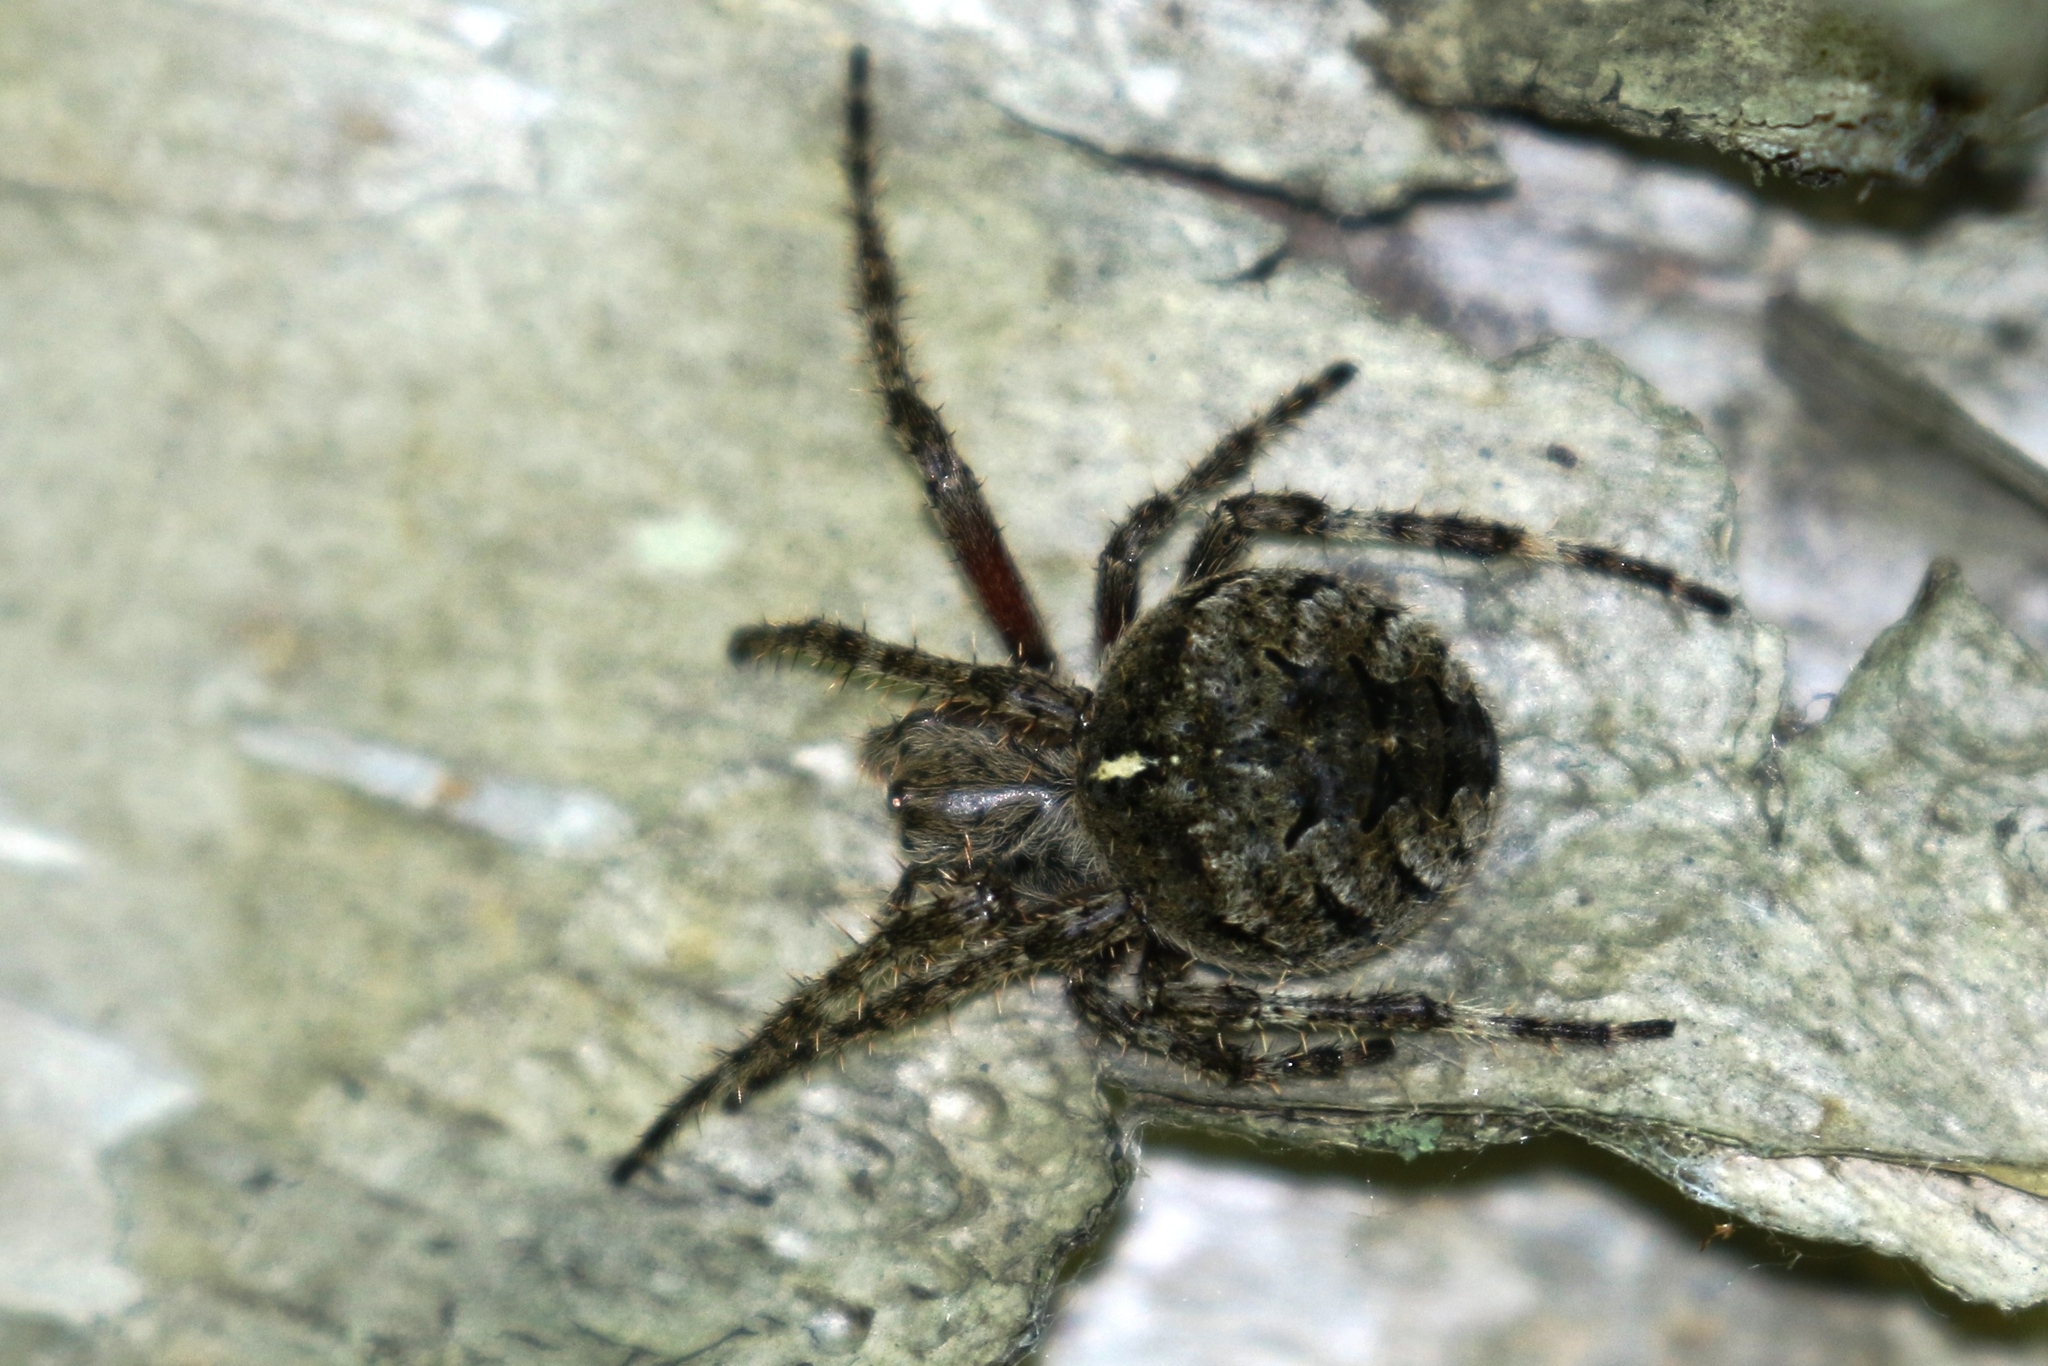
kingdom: Animalia
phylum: Arthropoda
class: Arachnida
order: Araneae
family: Araneidae
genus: Araneus
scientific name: Araneus saevus
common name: Fierce orbweaver
